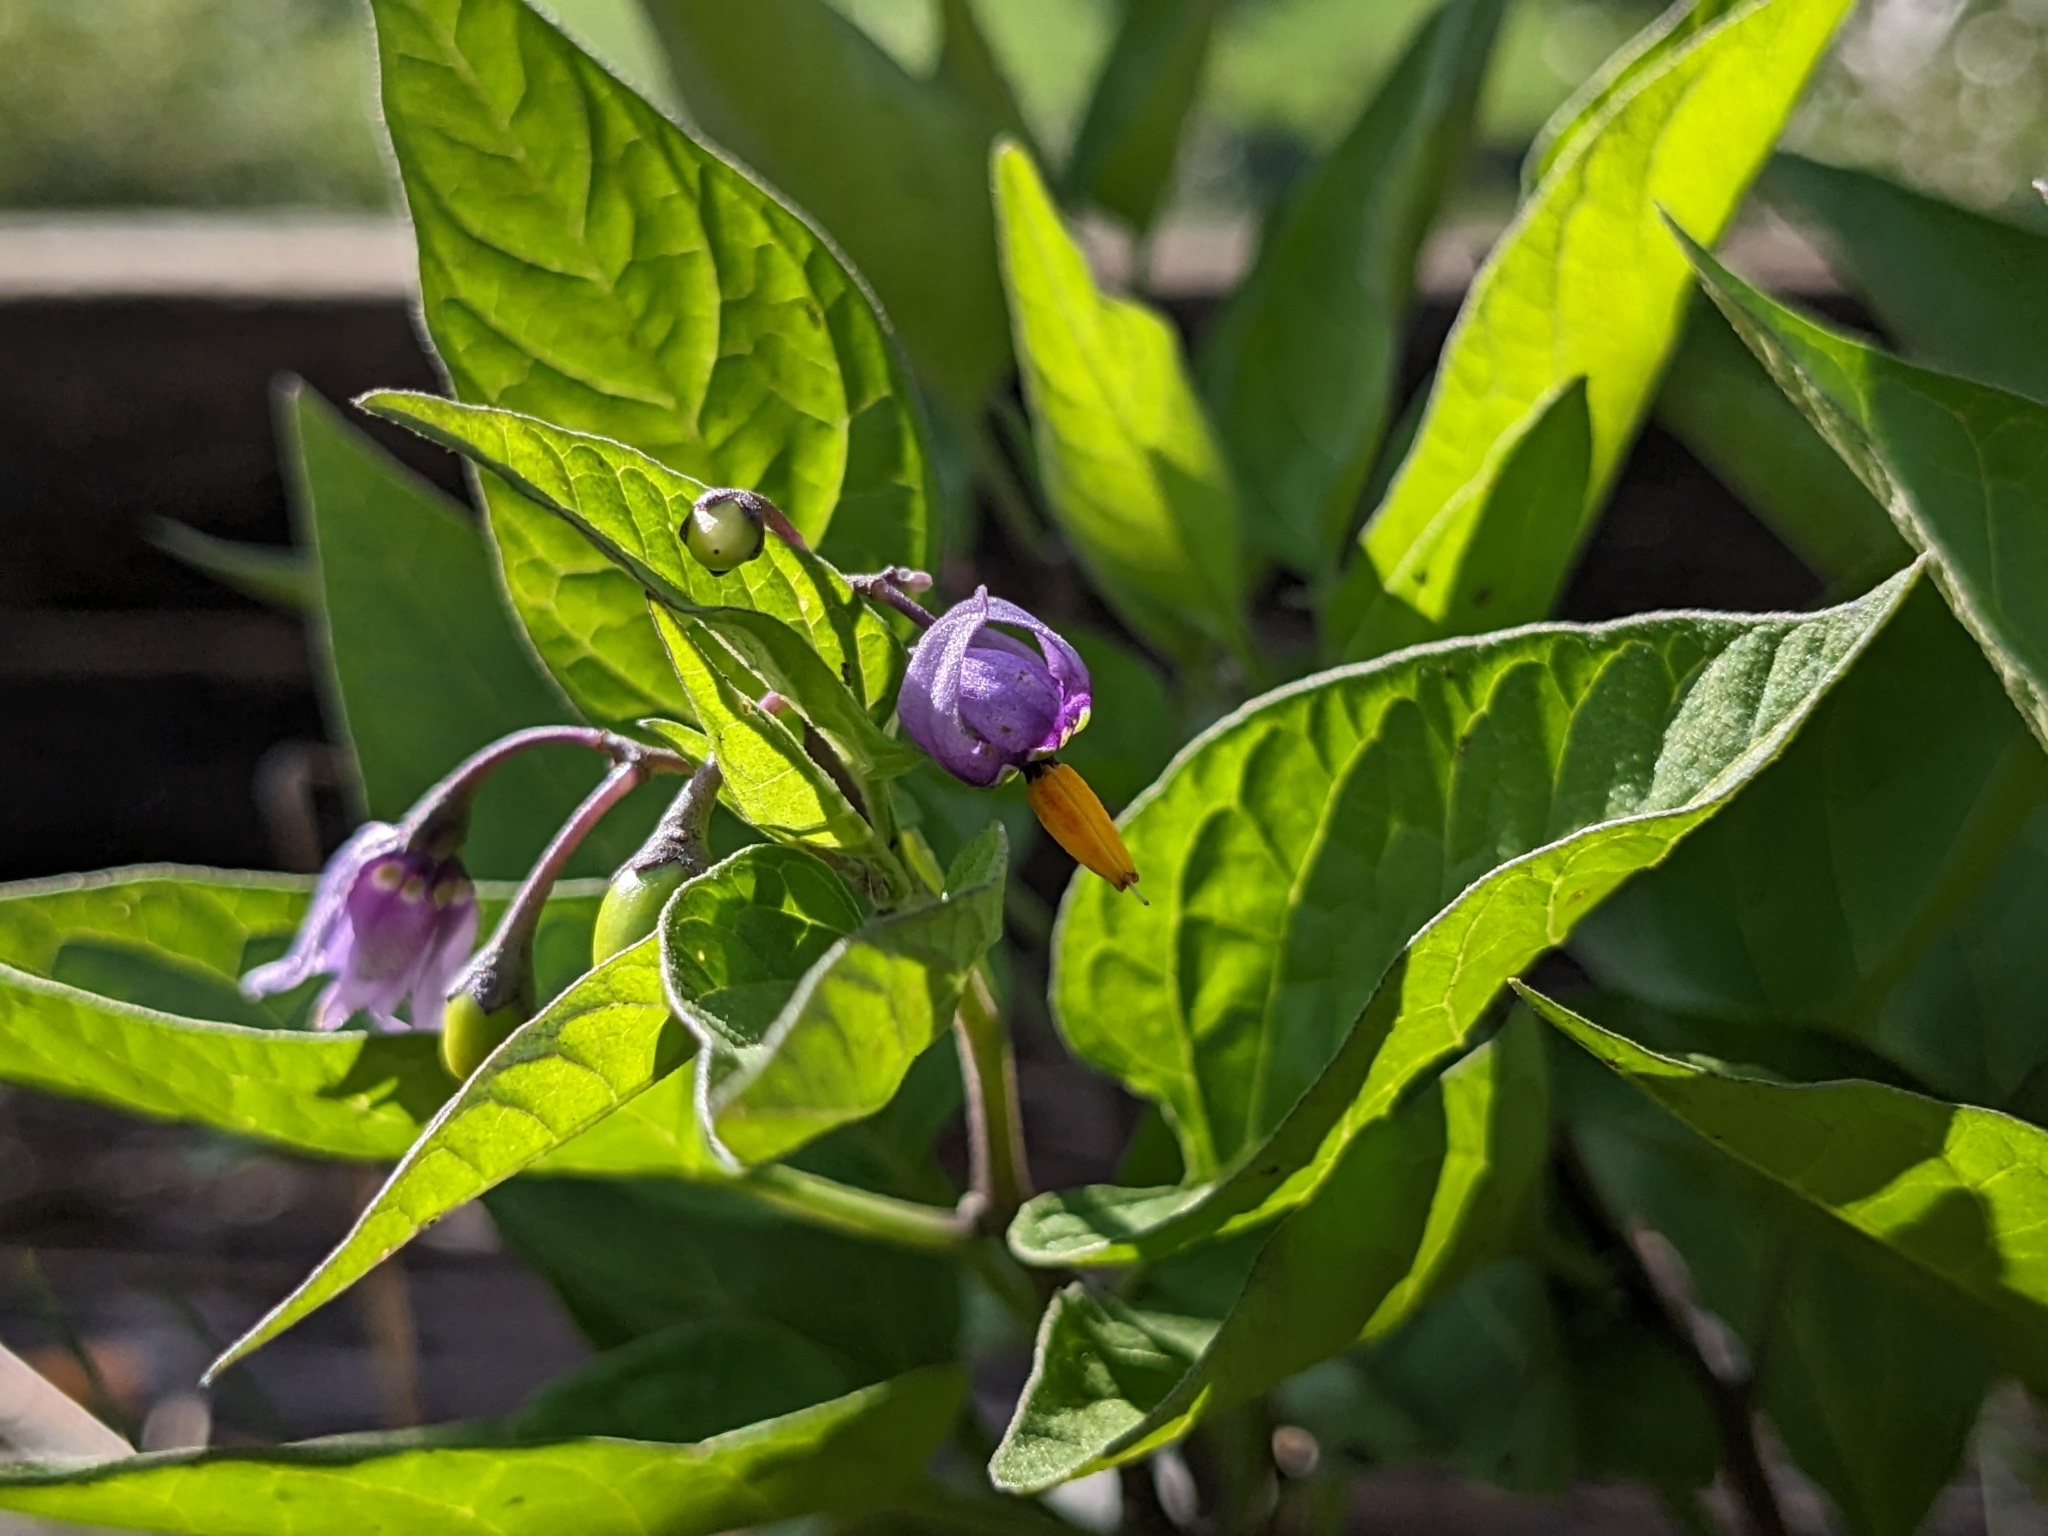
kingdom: Plantae
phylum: Tracheophyta
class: Magnoliopsida
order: Solanales
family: Solanaceae
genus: Solanum
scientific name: Solanum dulcamara
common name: Climbing nightshade
